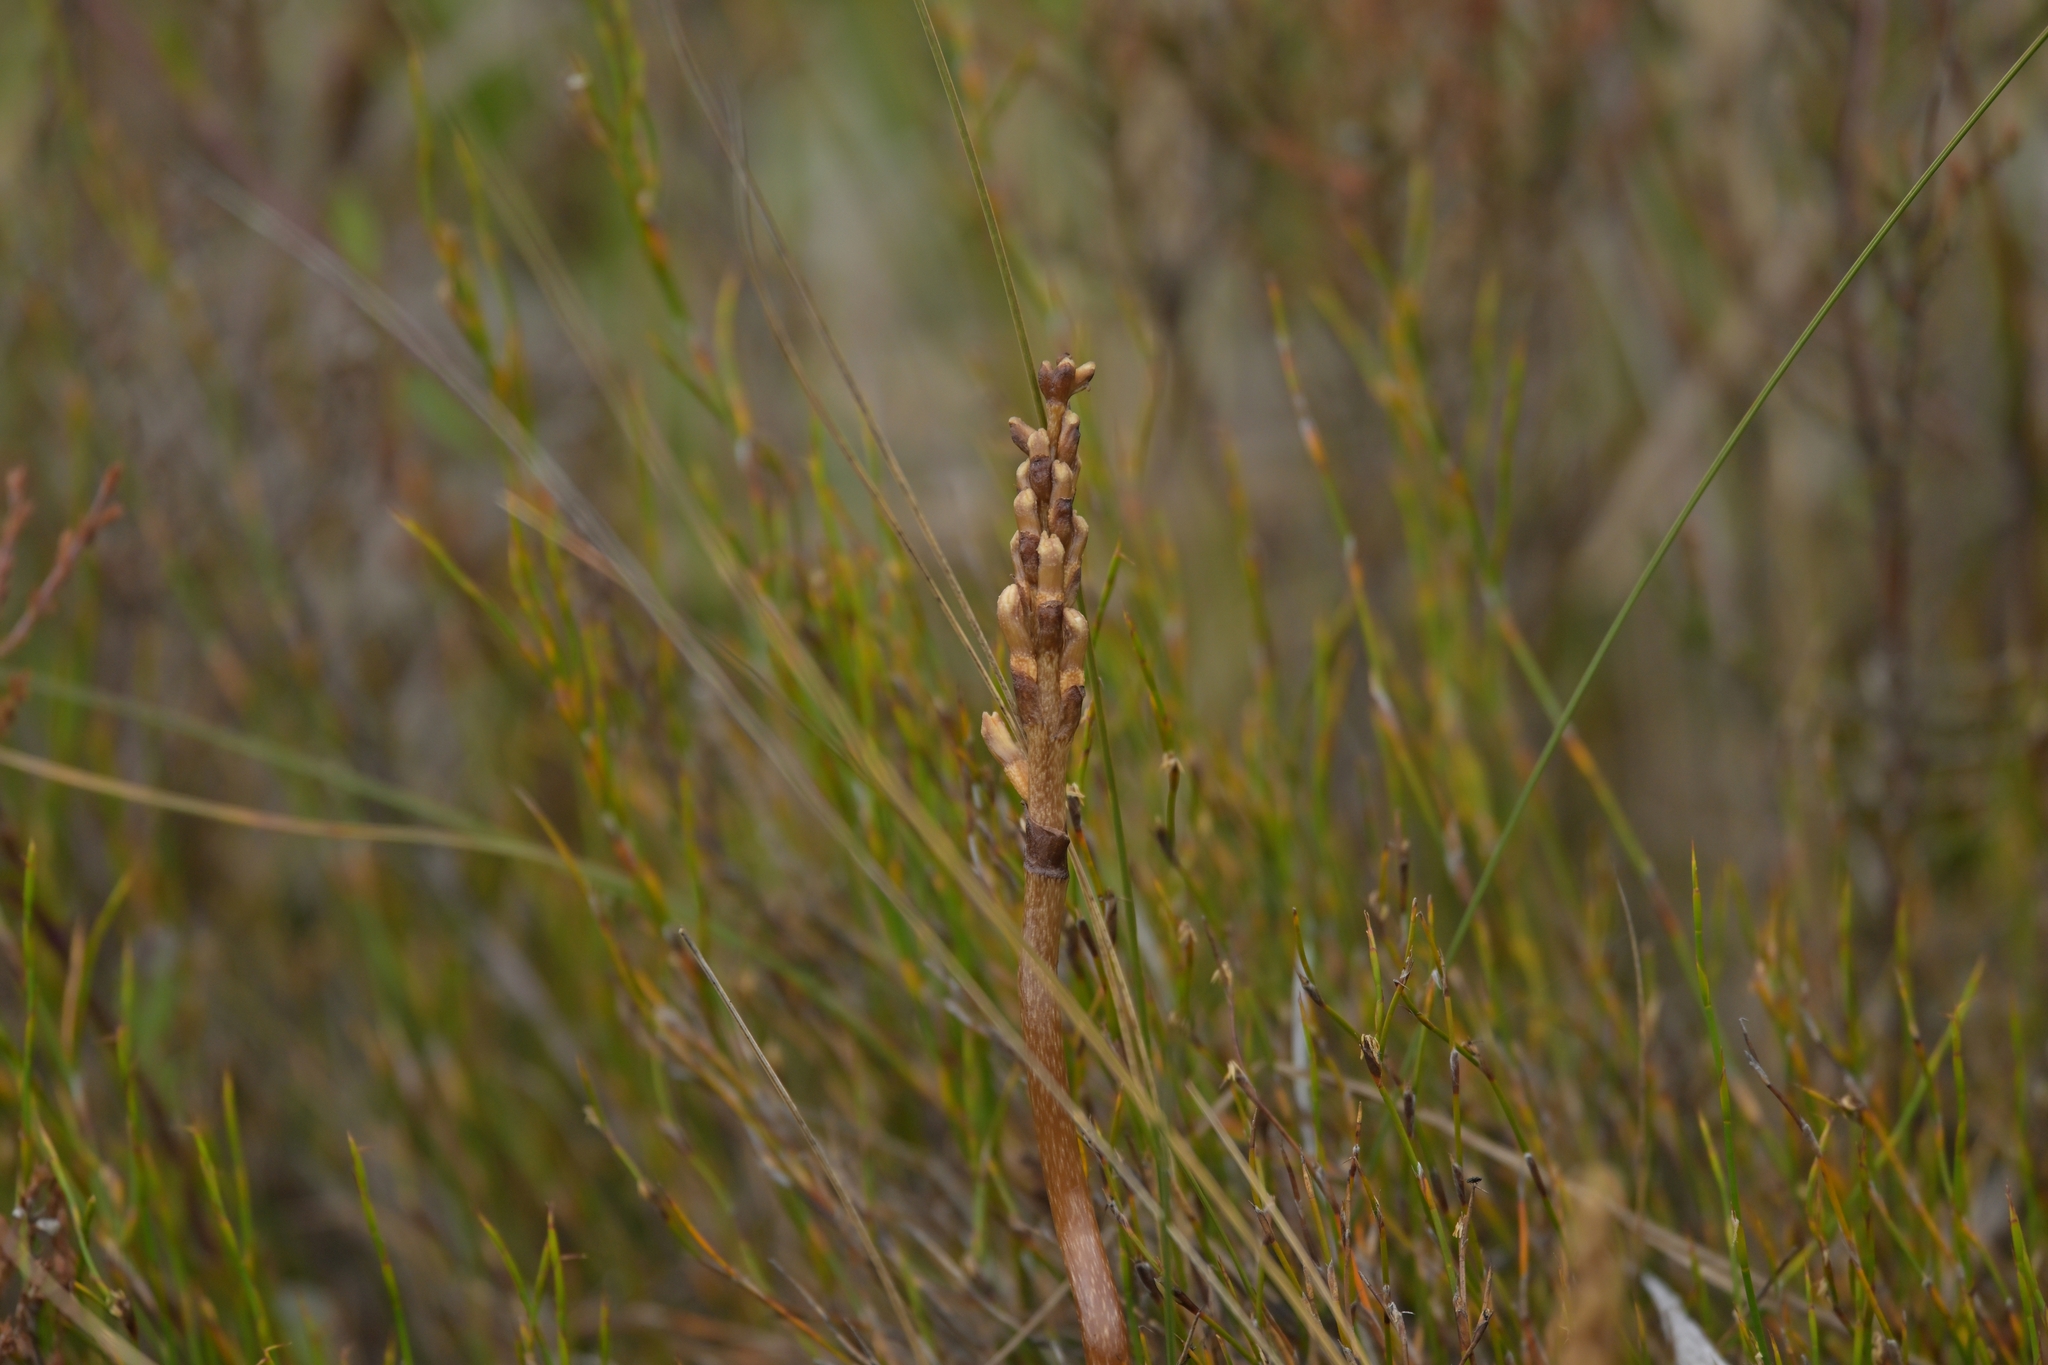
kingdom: Plantae
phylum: Tracheophyta
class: Liliopsida
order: Asparagales
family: Orchidaceae
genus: Gastrodia
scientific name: Gastrodia sesamoides
